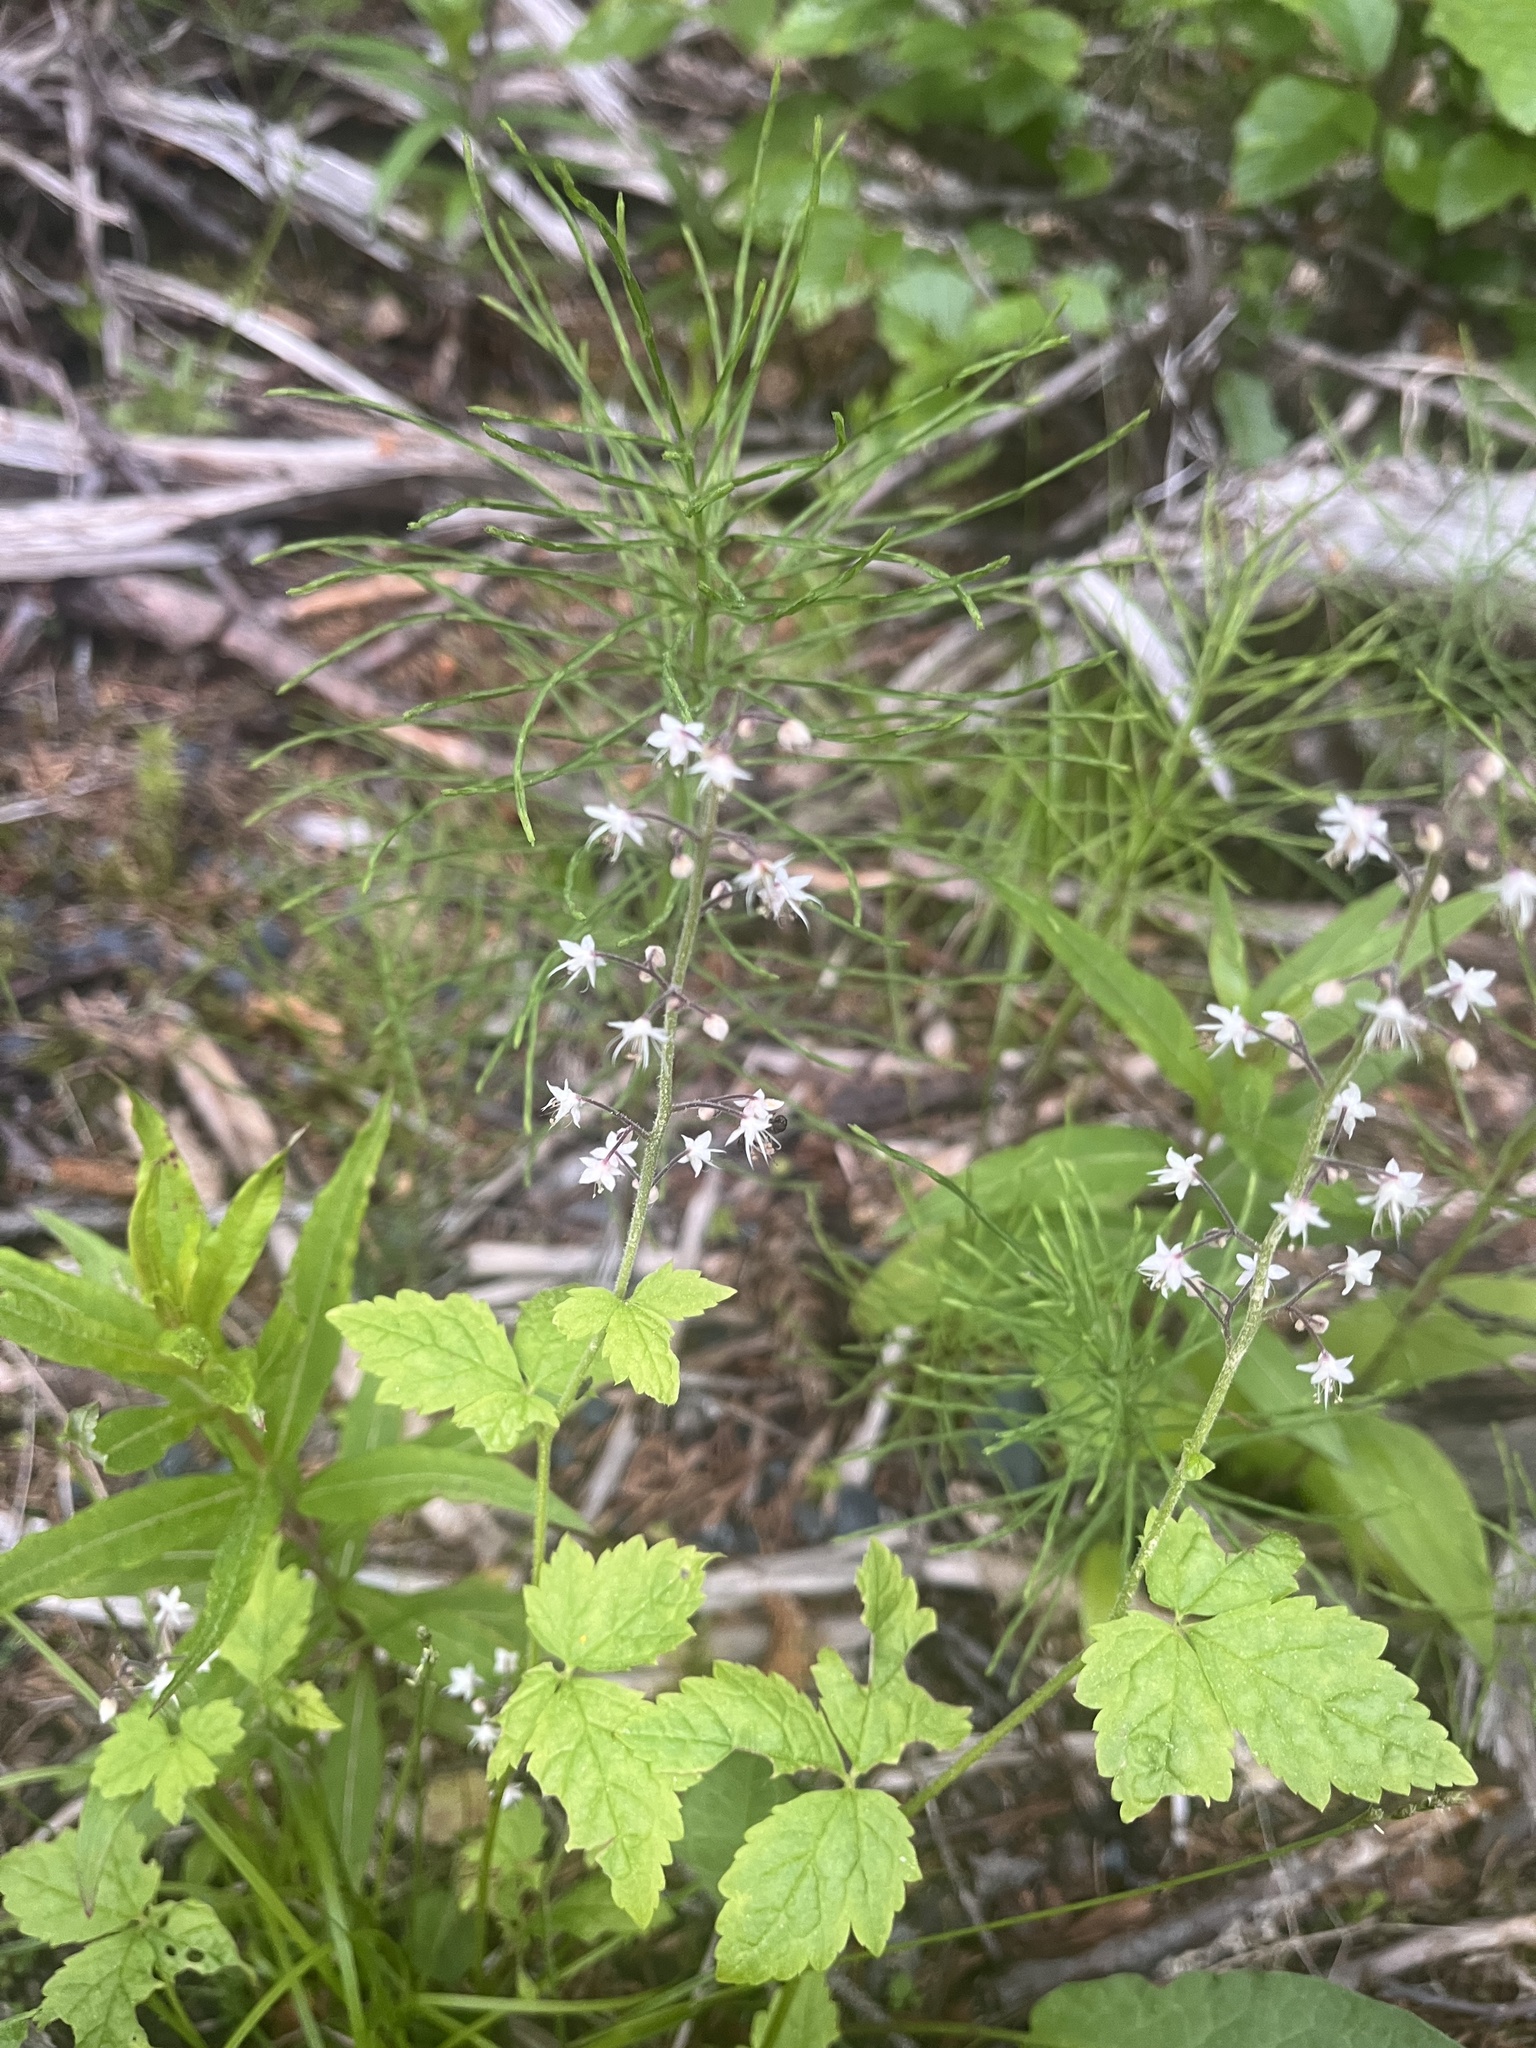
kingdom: Plantae
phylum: Tracheophyta
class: Magnoliopsida
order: Saxifragales
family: Saxifragaceae
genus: Tiarella
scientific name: Tiarella trifoliata
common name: Sugar-scoop
